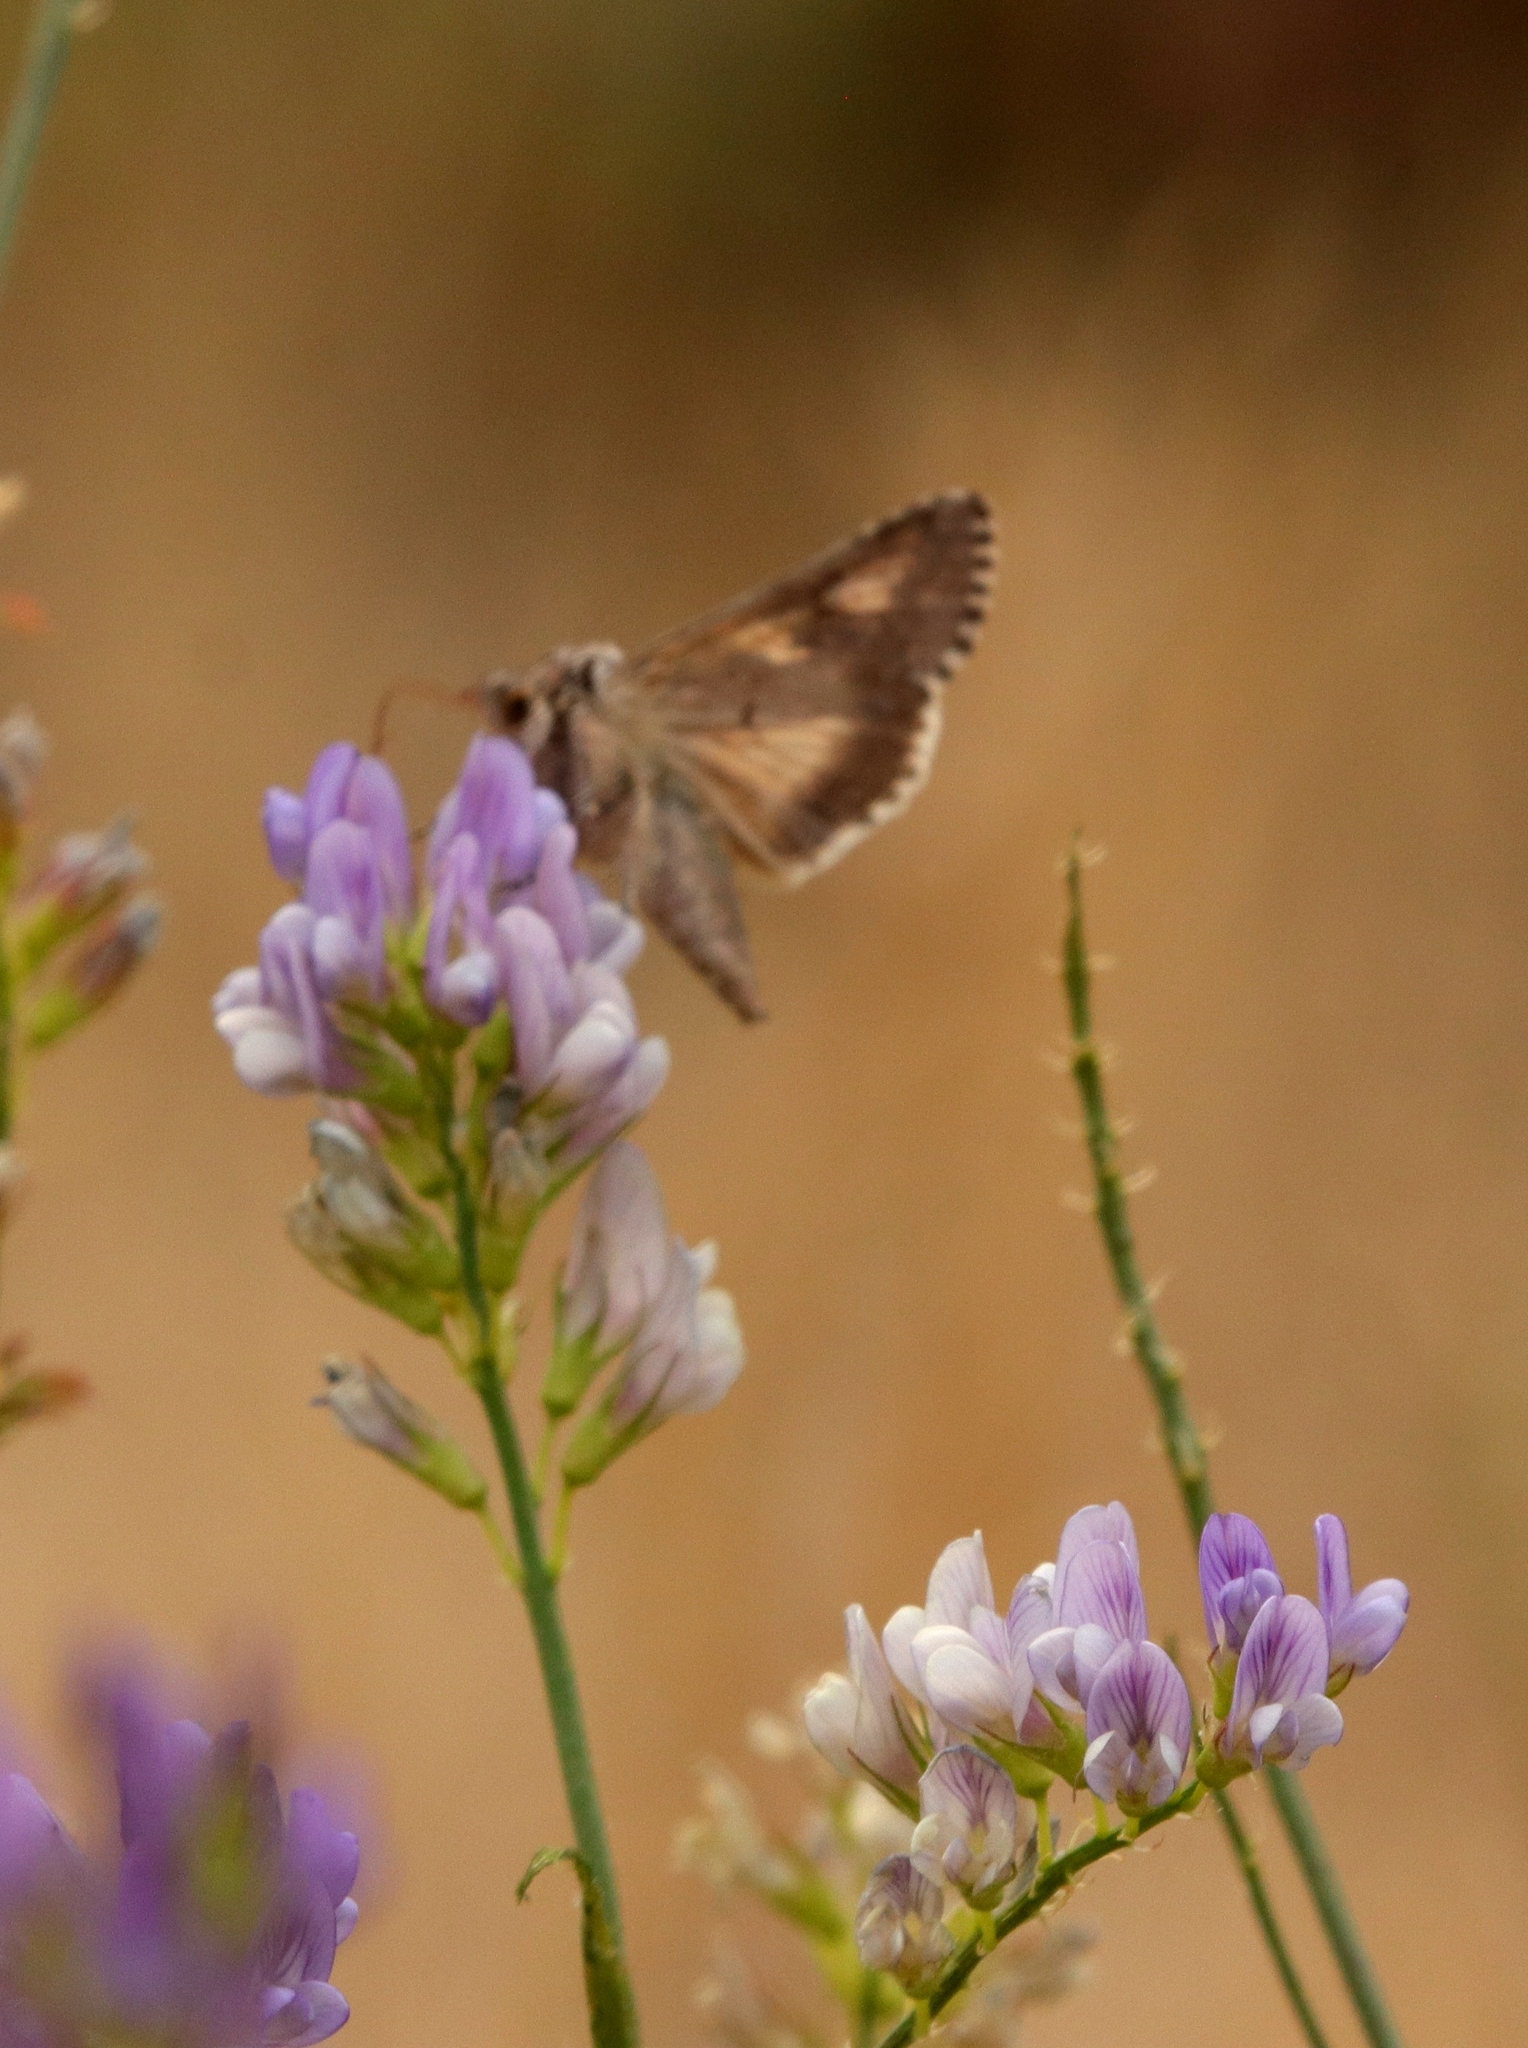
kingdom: Animalia
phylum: Arthropoda
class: Insecta
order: Lepidoptera
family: Noctuidae
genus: Autographa
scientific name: Autographa californica
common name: Alfalfa looper
